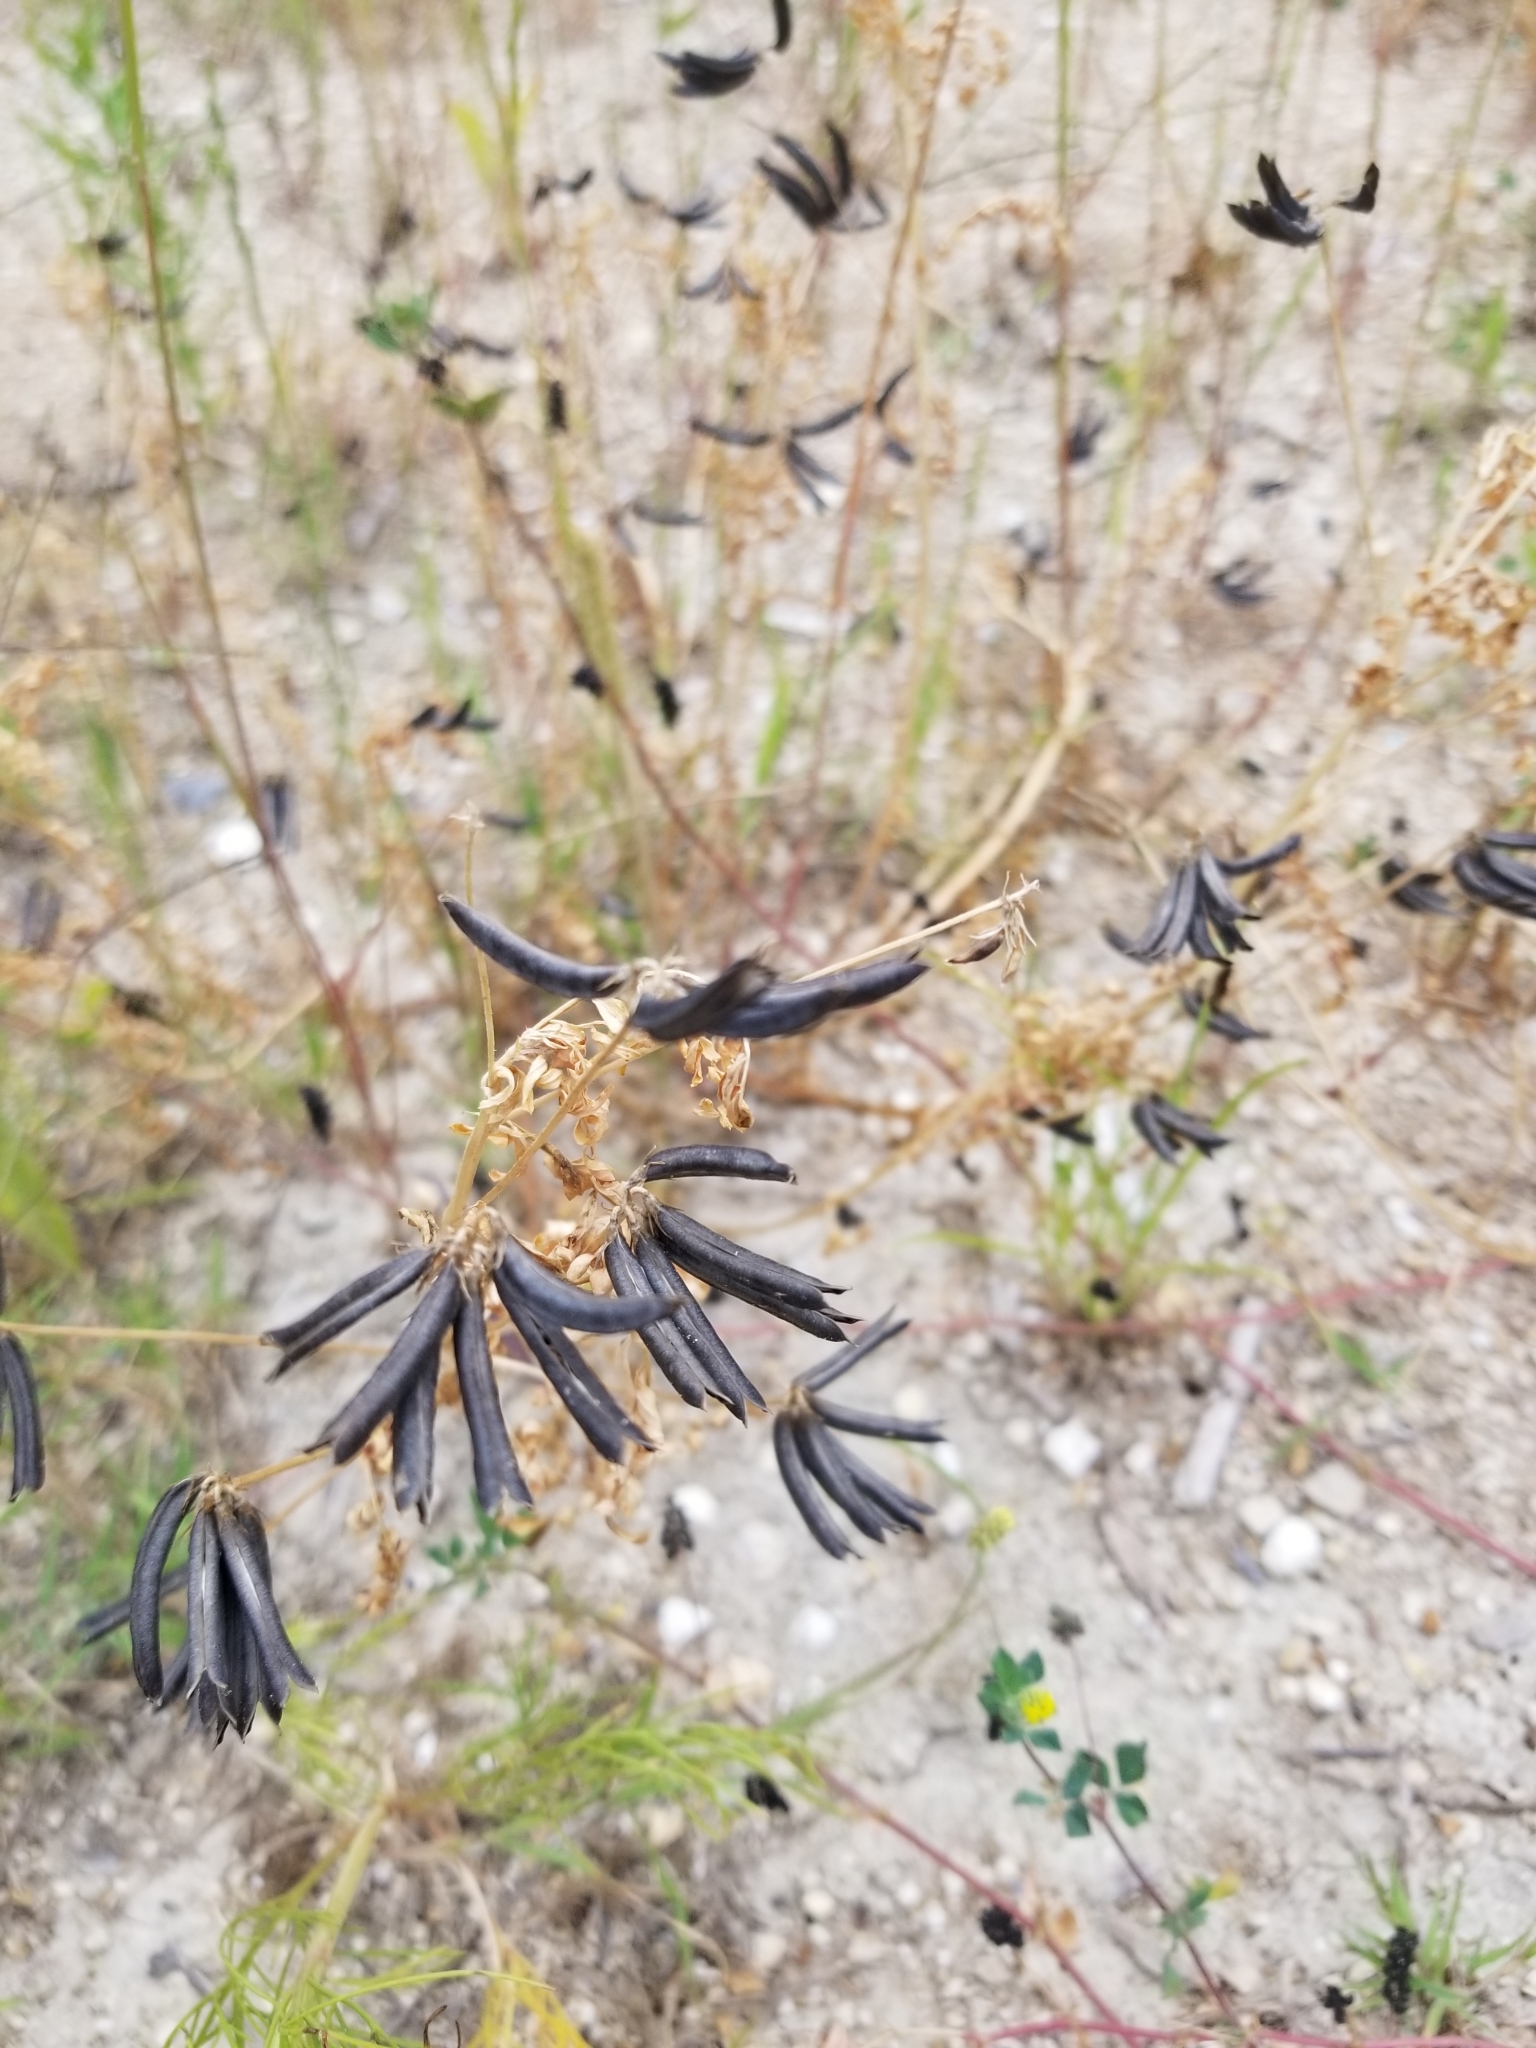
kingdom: Plantae
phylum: Tracheophyta
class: Magnoliopsida
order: Fabales
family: Fabaceae
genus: Astragalus
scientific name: Astragalus nuttallianus
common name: Smallflowered milkvetch
